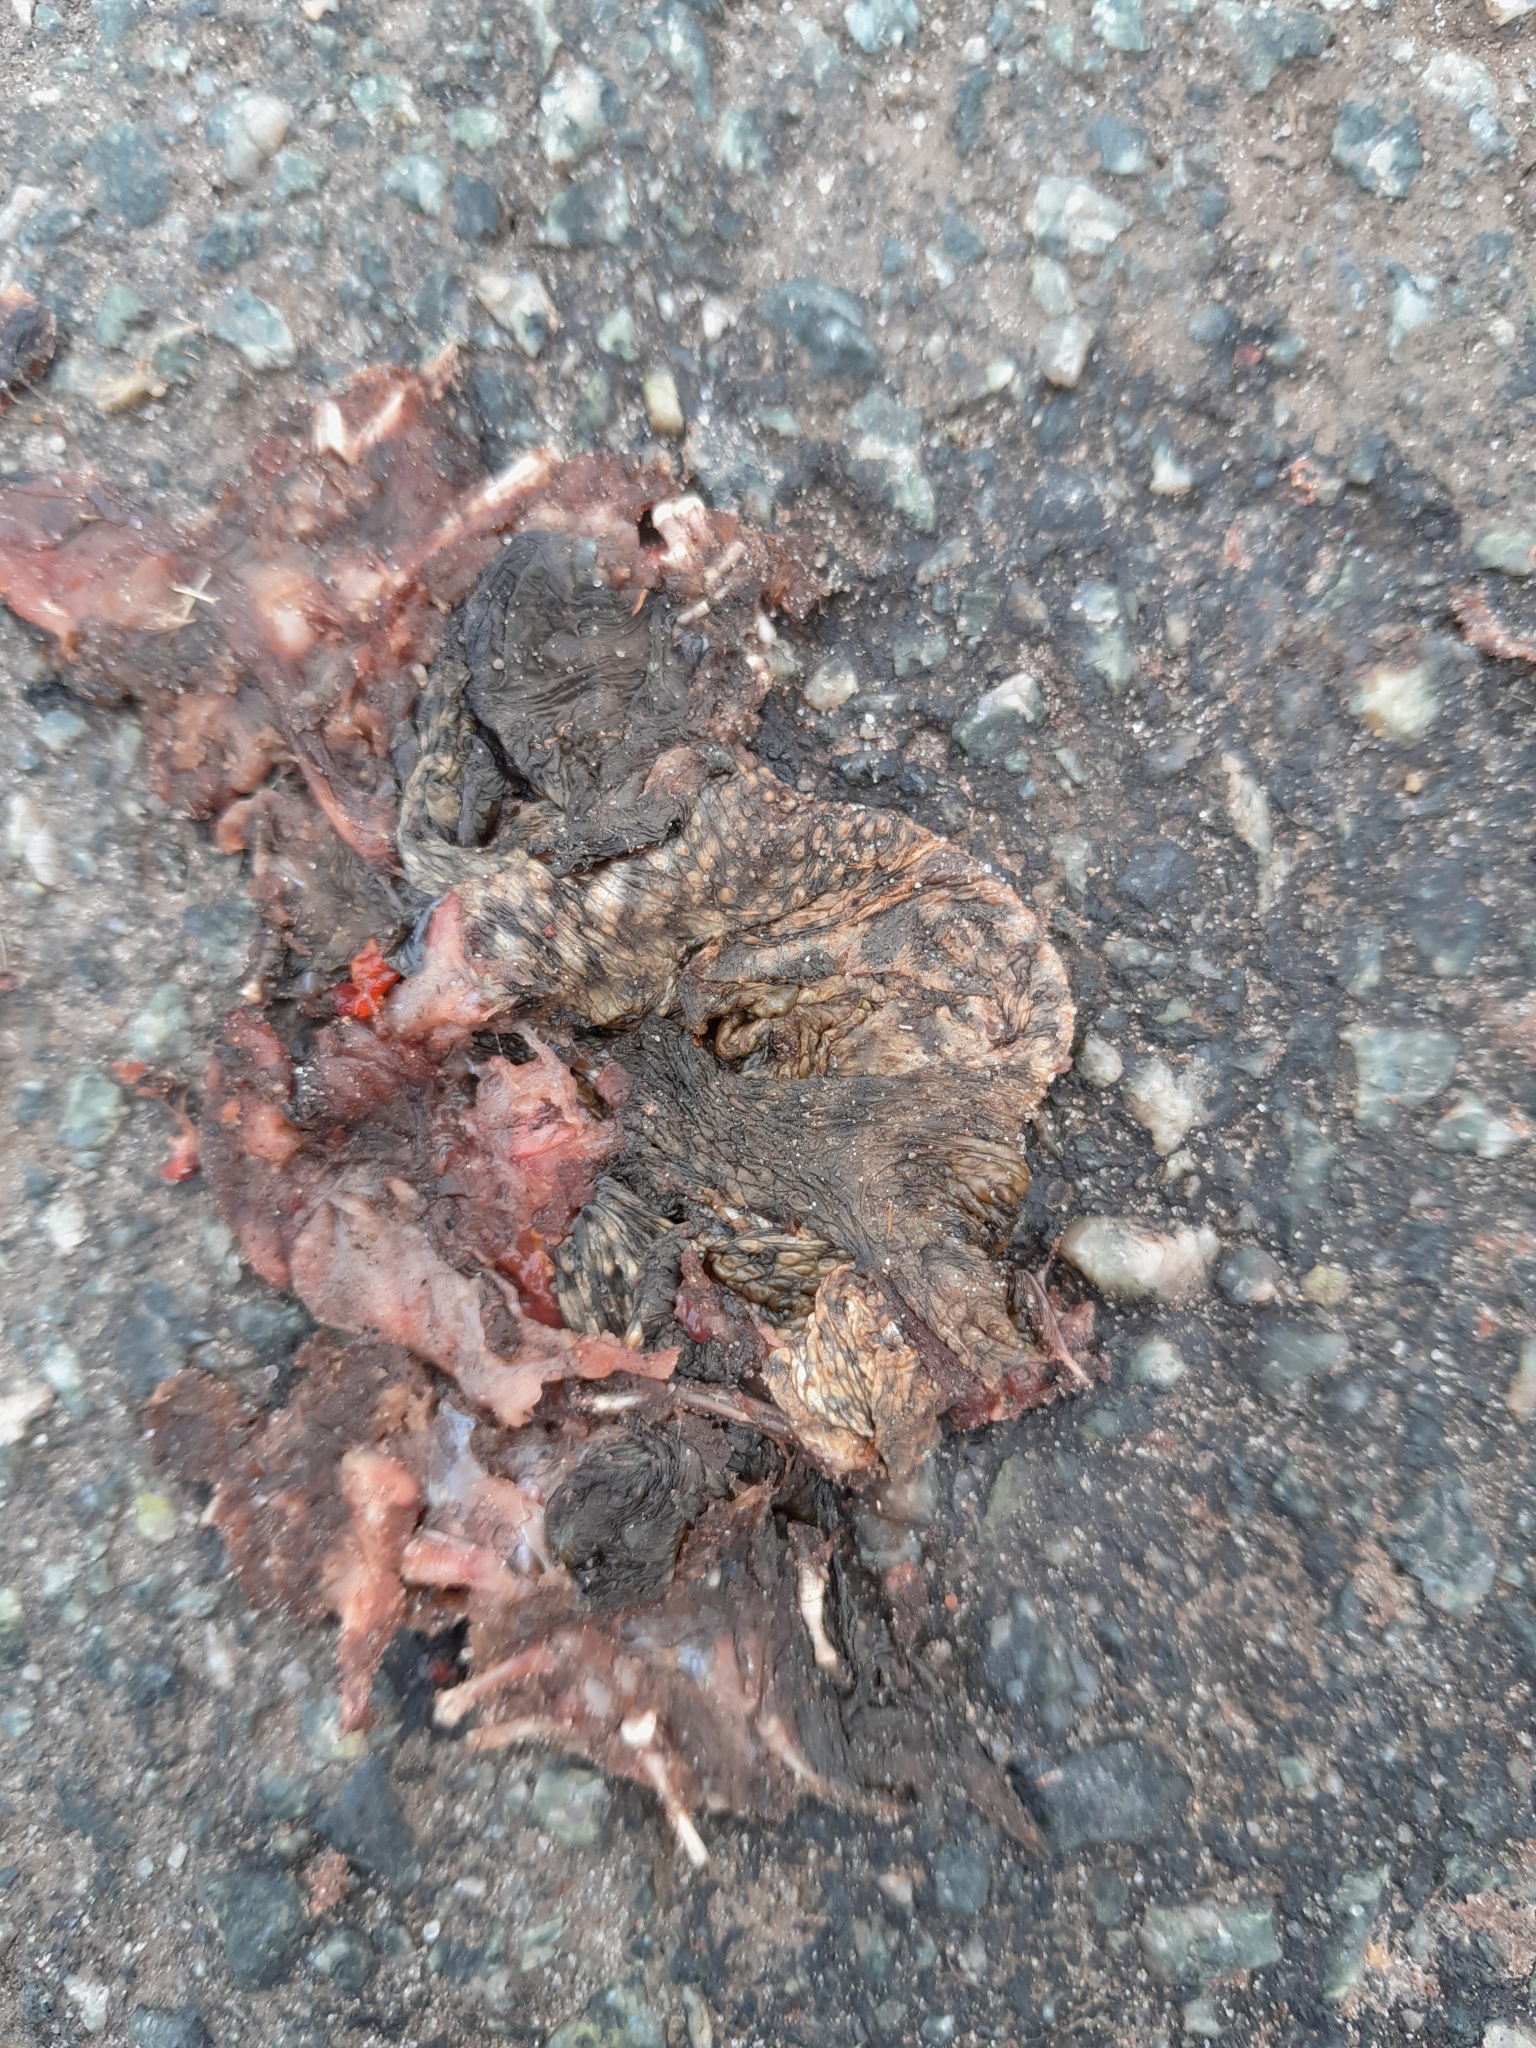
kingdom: Animalia
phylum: Chordata
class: Amphibia
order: Anura
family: Bufonidae
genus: Bufo
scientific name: Bufo bufo
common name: Common toad
